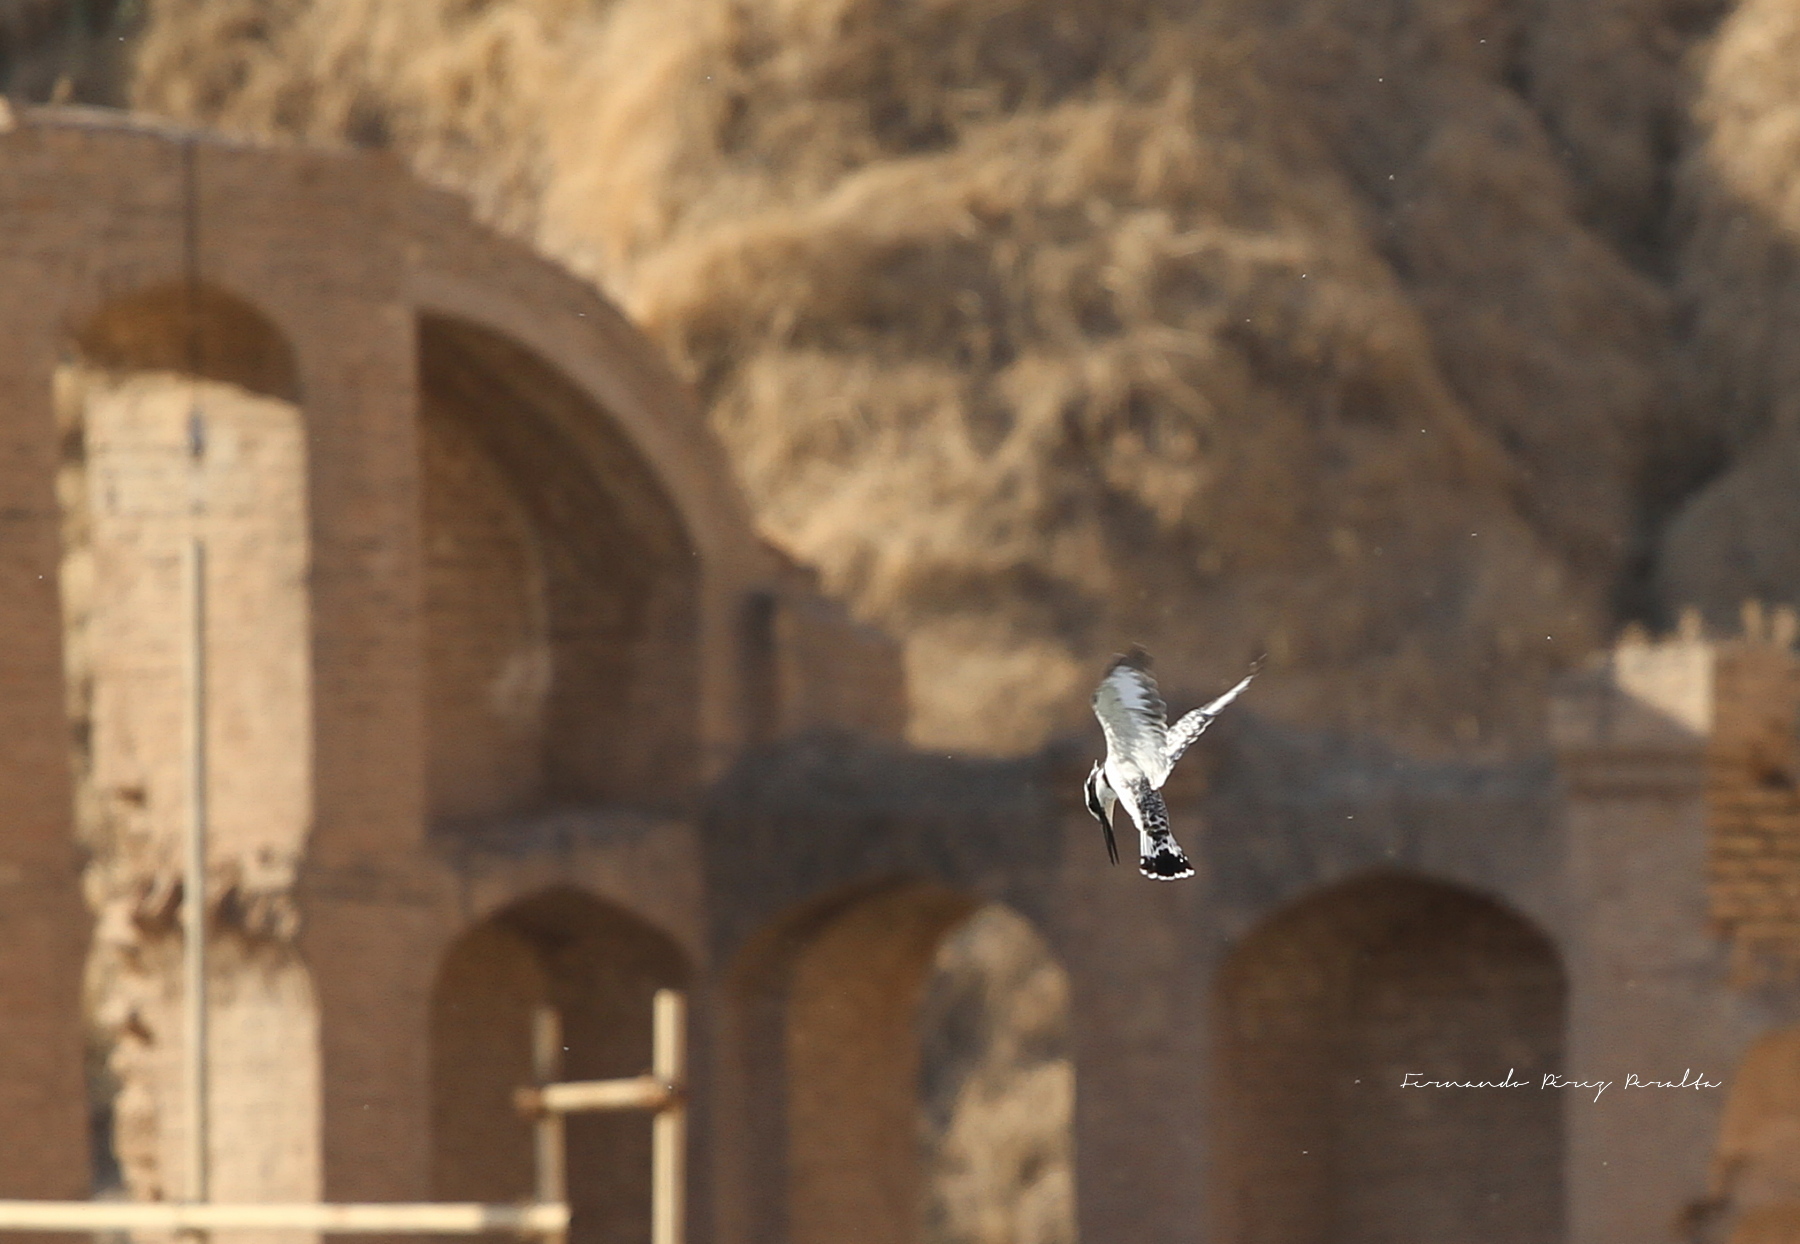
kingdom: Animalia
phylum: Chordata
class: Aves
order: Coraciiformes
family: Alcedinidae
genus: Ceryle
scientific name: Ceryle rudis
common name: Pied kingfisher
